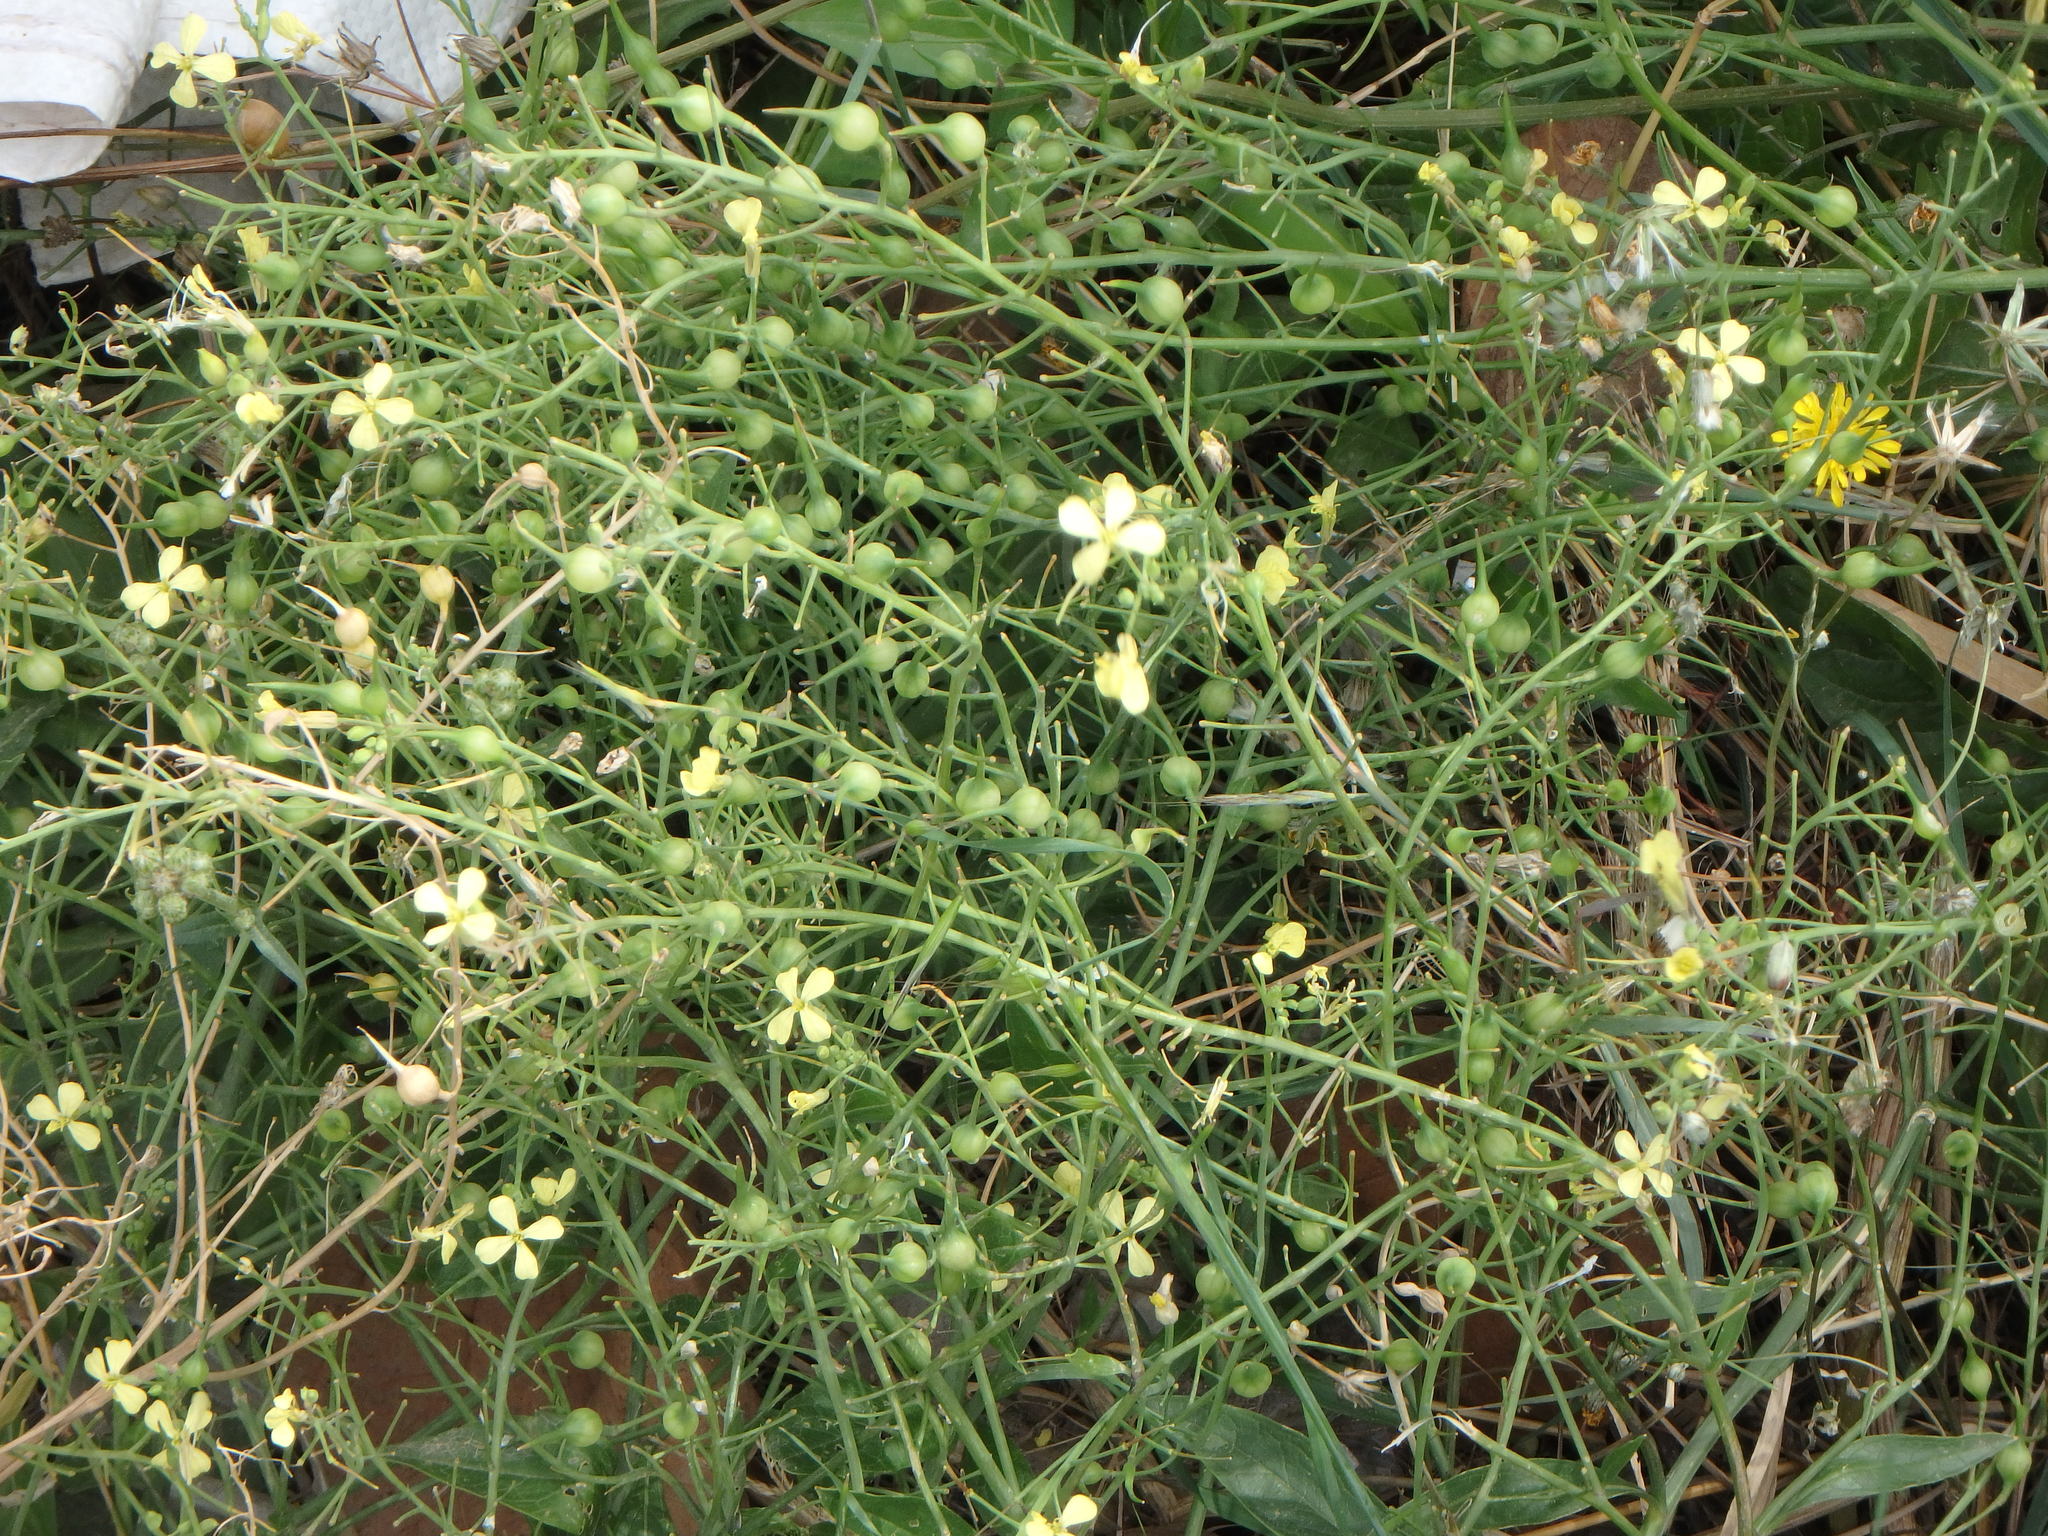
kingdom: Plantae
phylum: Tracheophyta
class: Magnoliopsida
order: Brassicales
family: Brassicaceae
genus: Raphanus
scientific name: Raphanus raphanistrum
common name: Wild radish
